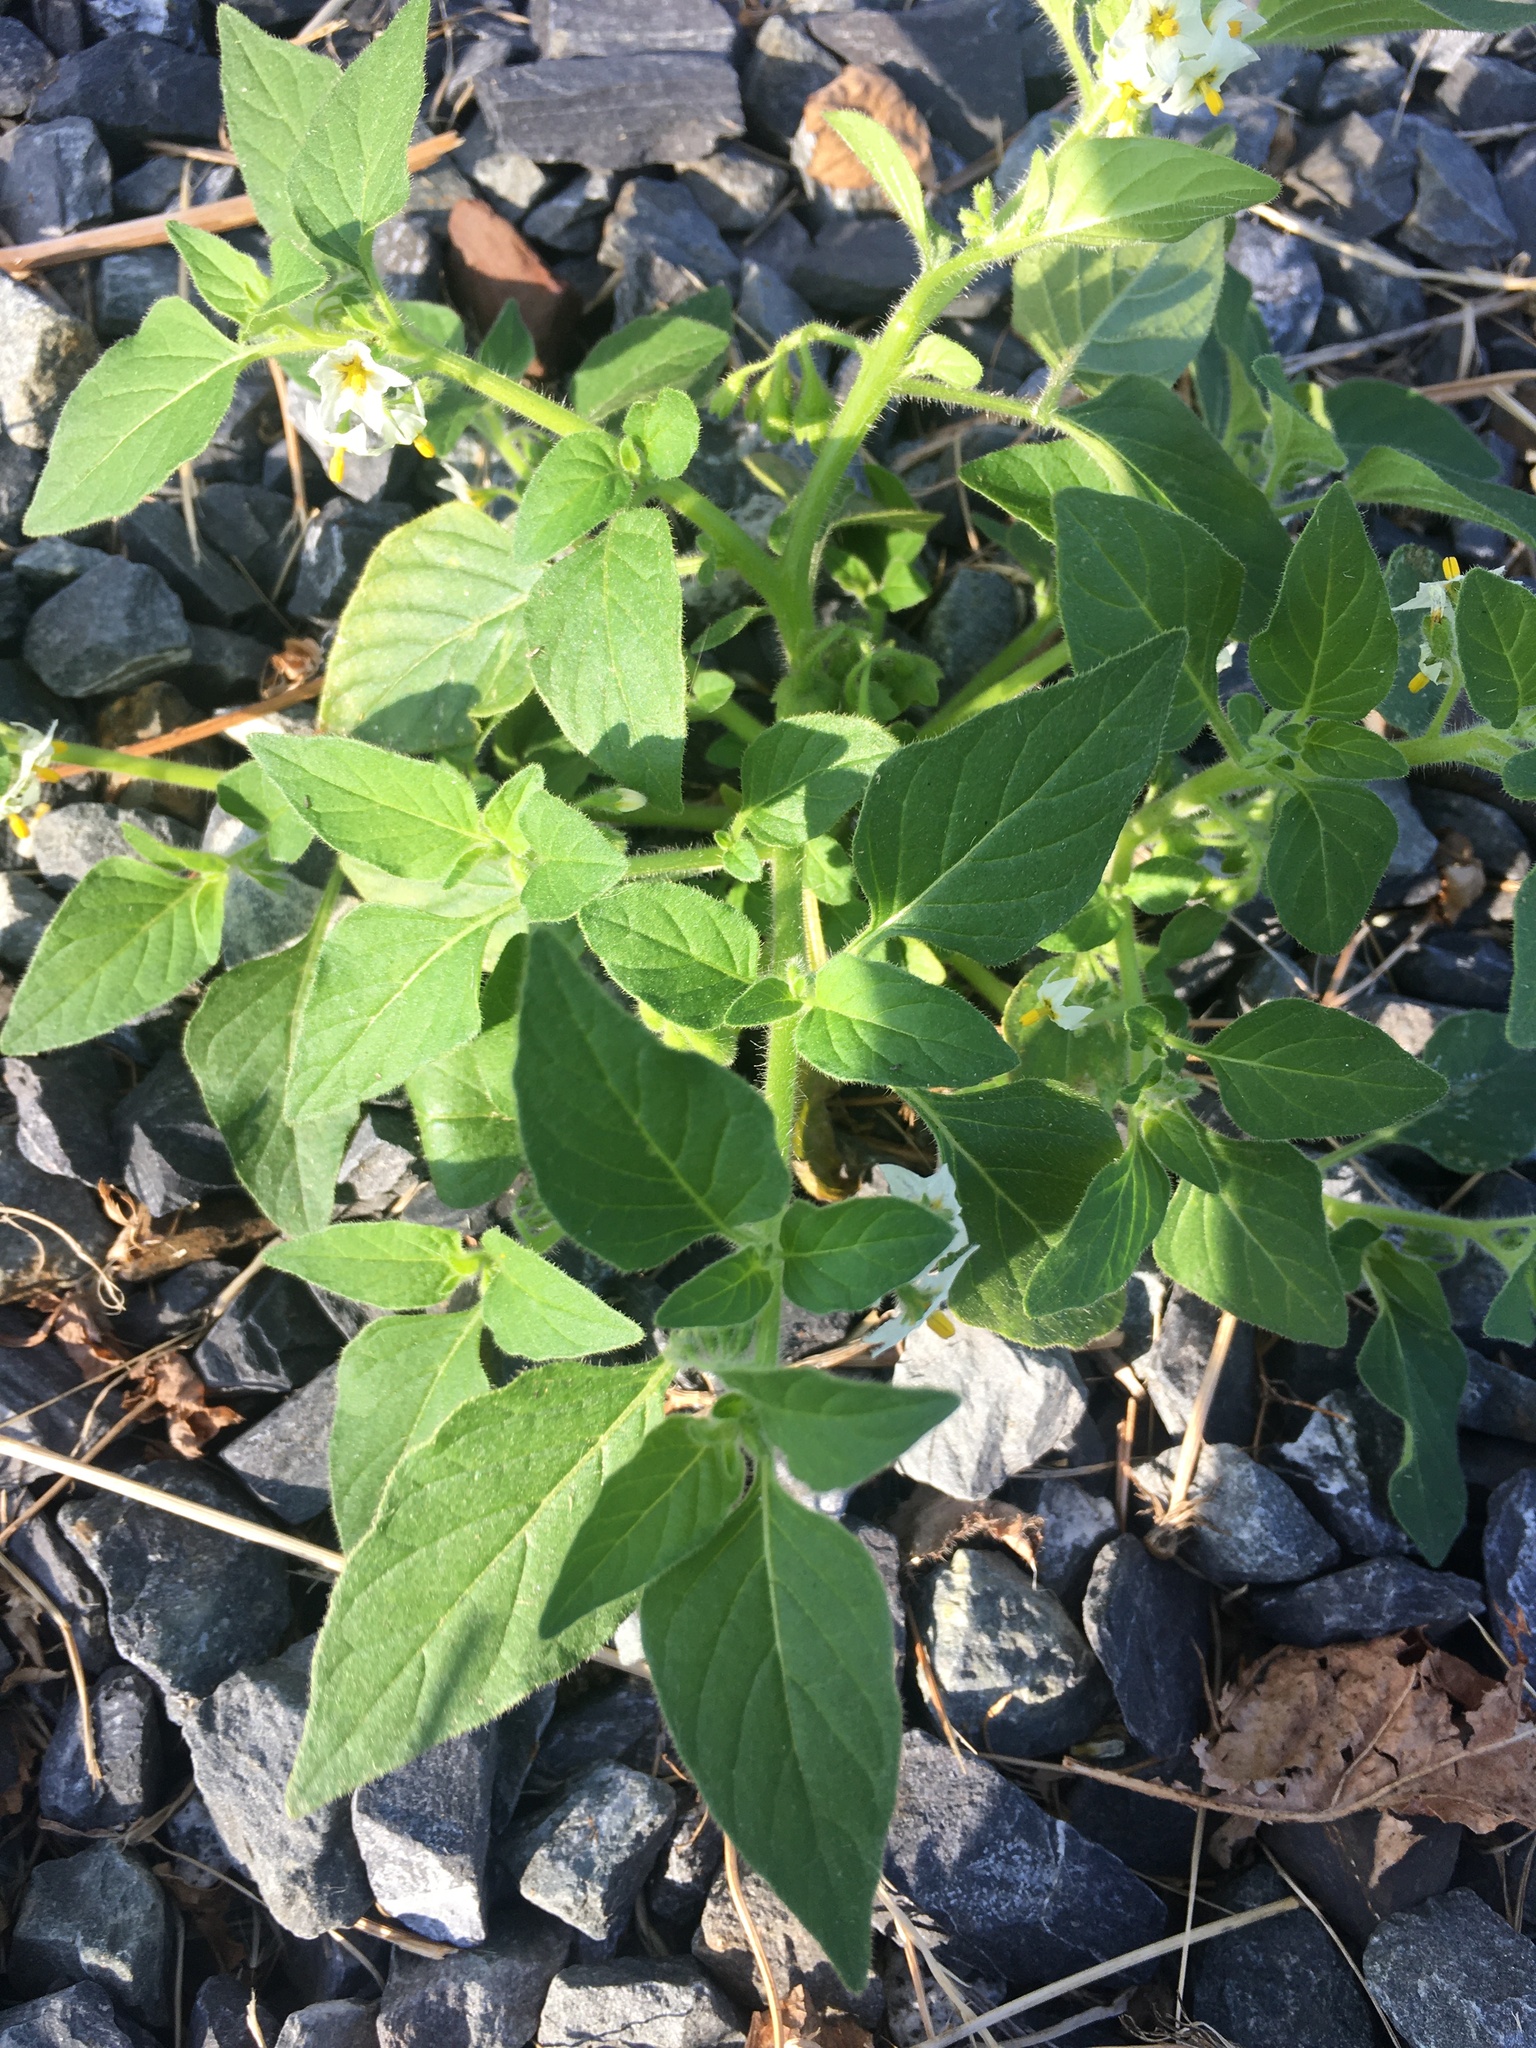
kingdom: Plantae
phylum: Tracheophyta
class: Magnoliopsida
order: Solanales
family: Solanaceae
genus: Solanum
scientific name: Solanum nitidibaccatum
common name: Hairy nightshade
